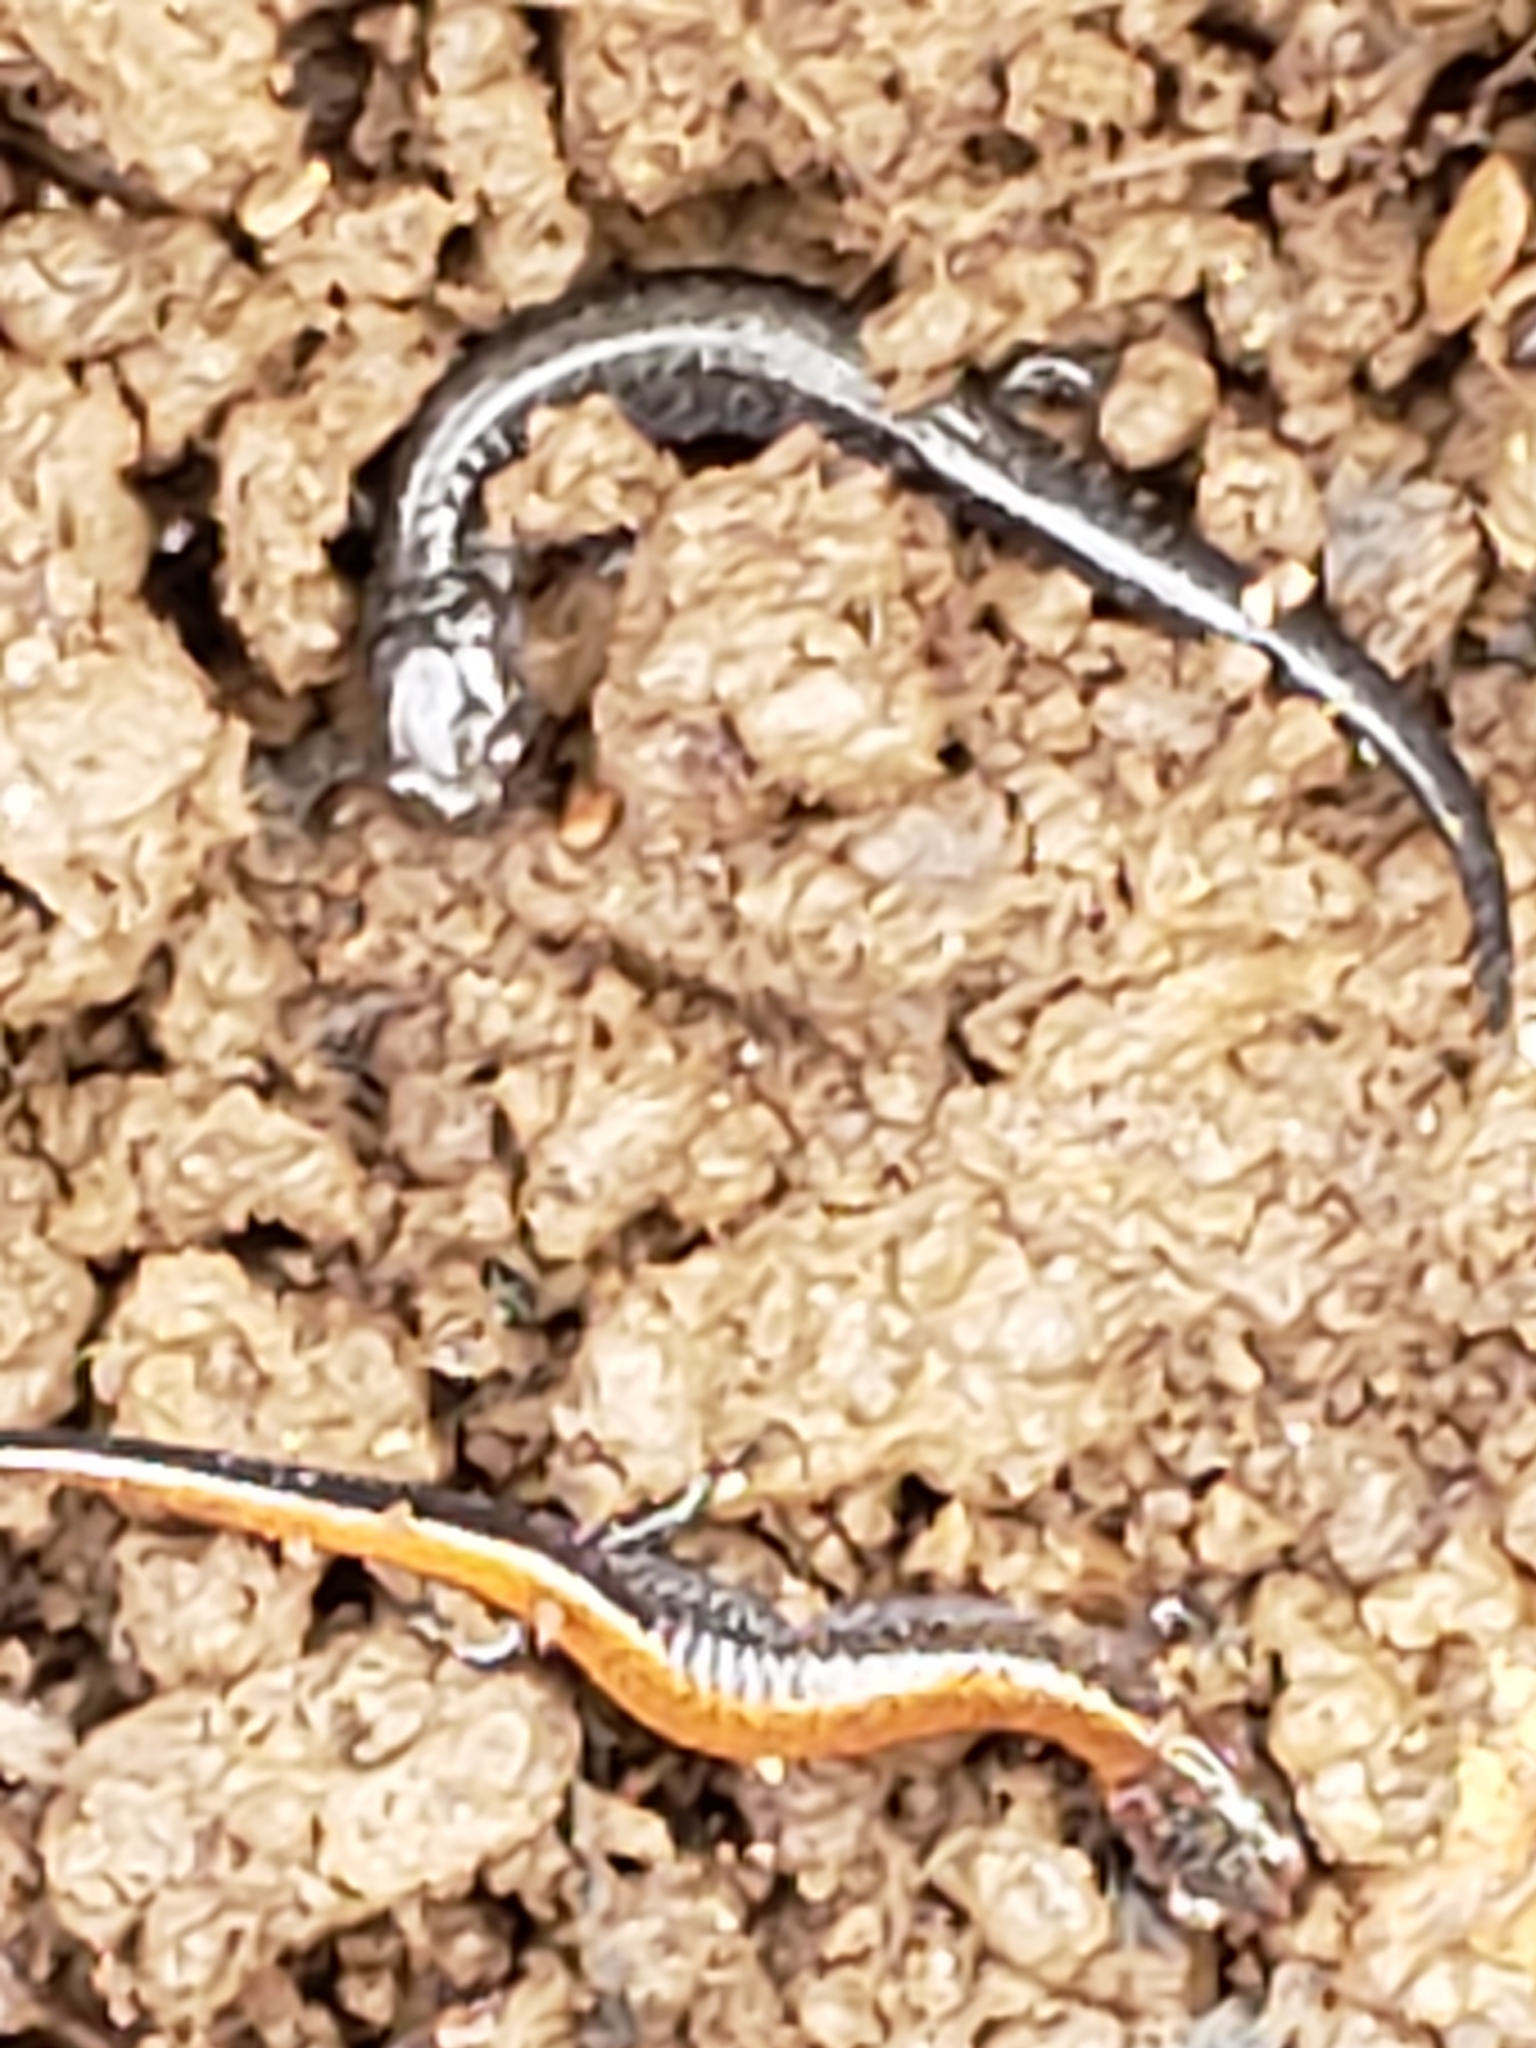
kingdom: Animalia
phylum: Chordata
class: Amphibia
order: Caudata
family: Plethodontidae
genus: Plethodon
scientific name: Plethodon cinereus
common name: Redback salamander
